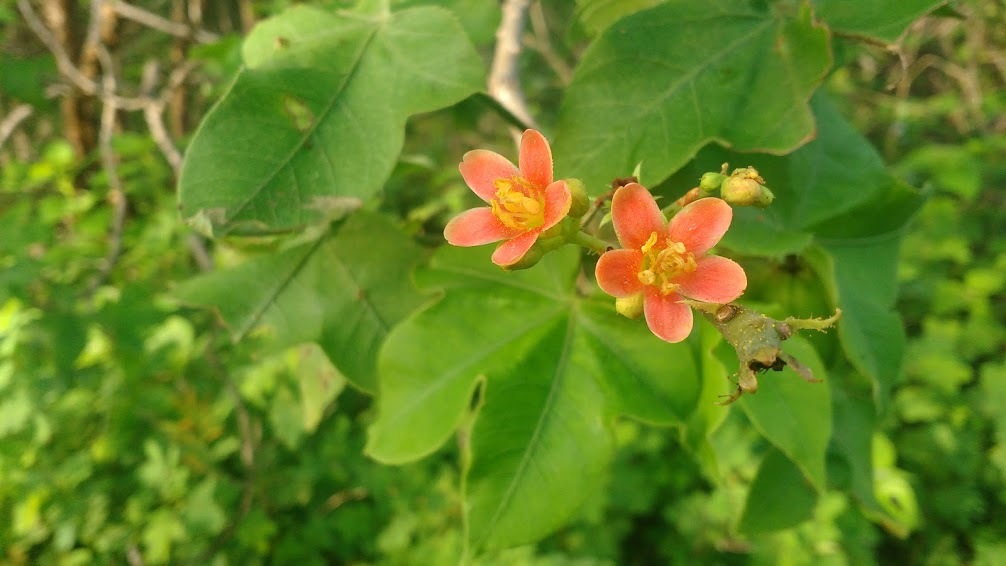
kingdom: Plantae
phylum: Tracheophyta
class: Magnoliopsida
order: Malpighiales
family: Euphorbiaceae
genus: Jatropha
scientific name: Jatropha mollissima
